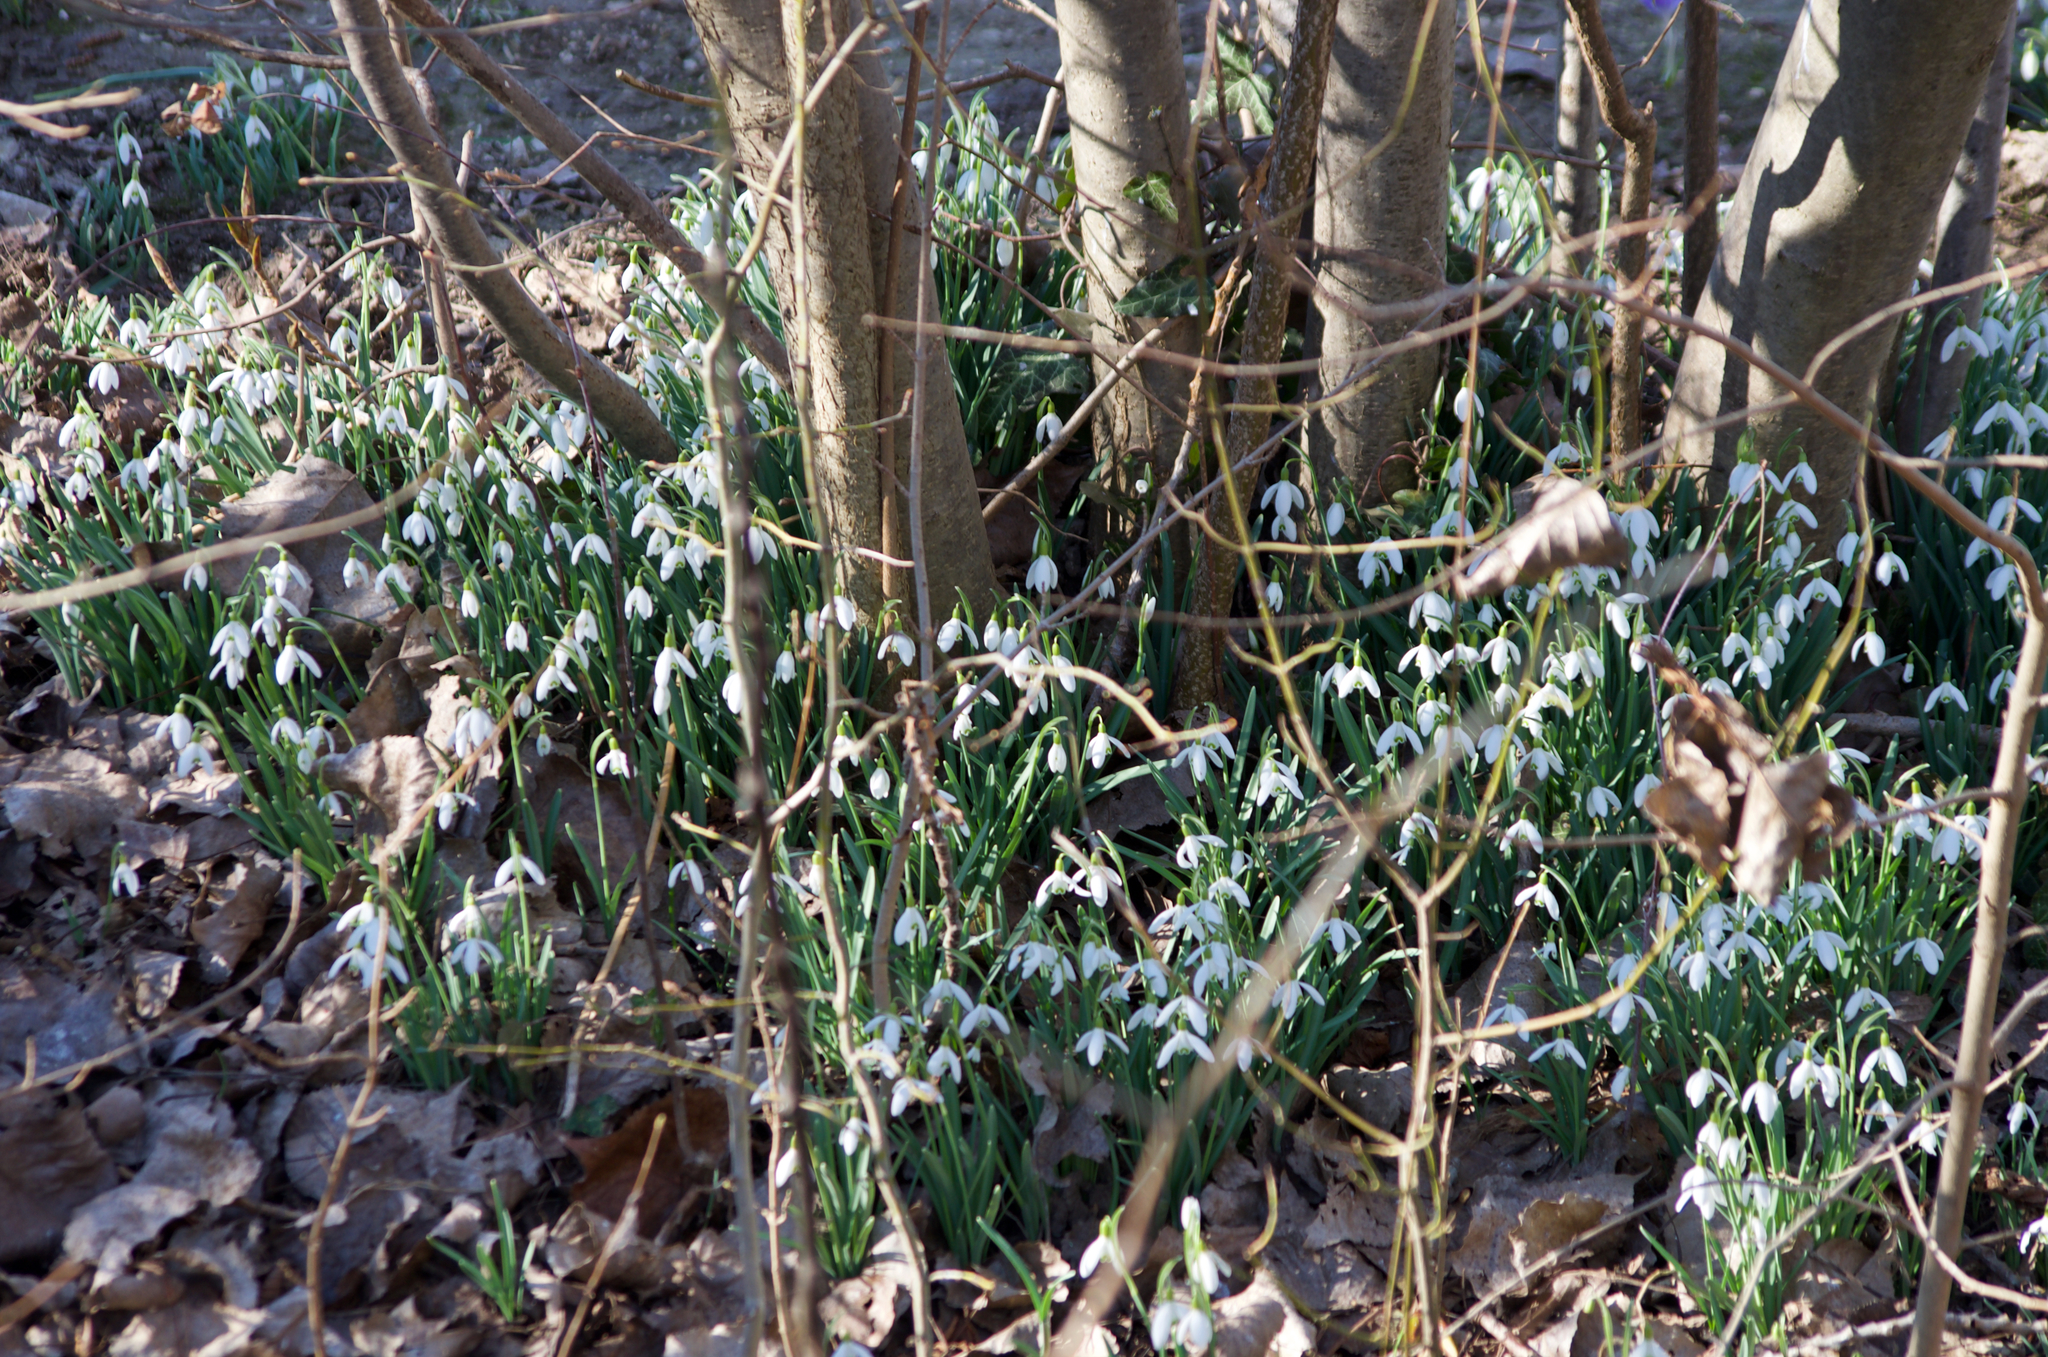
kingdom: Plantae
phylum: Tracheophyta
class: Liliopsida
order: Asparagales
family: Amaryllidaceae
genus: Galanthus
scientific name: Galanthus nivalis
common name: Snowdrop
